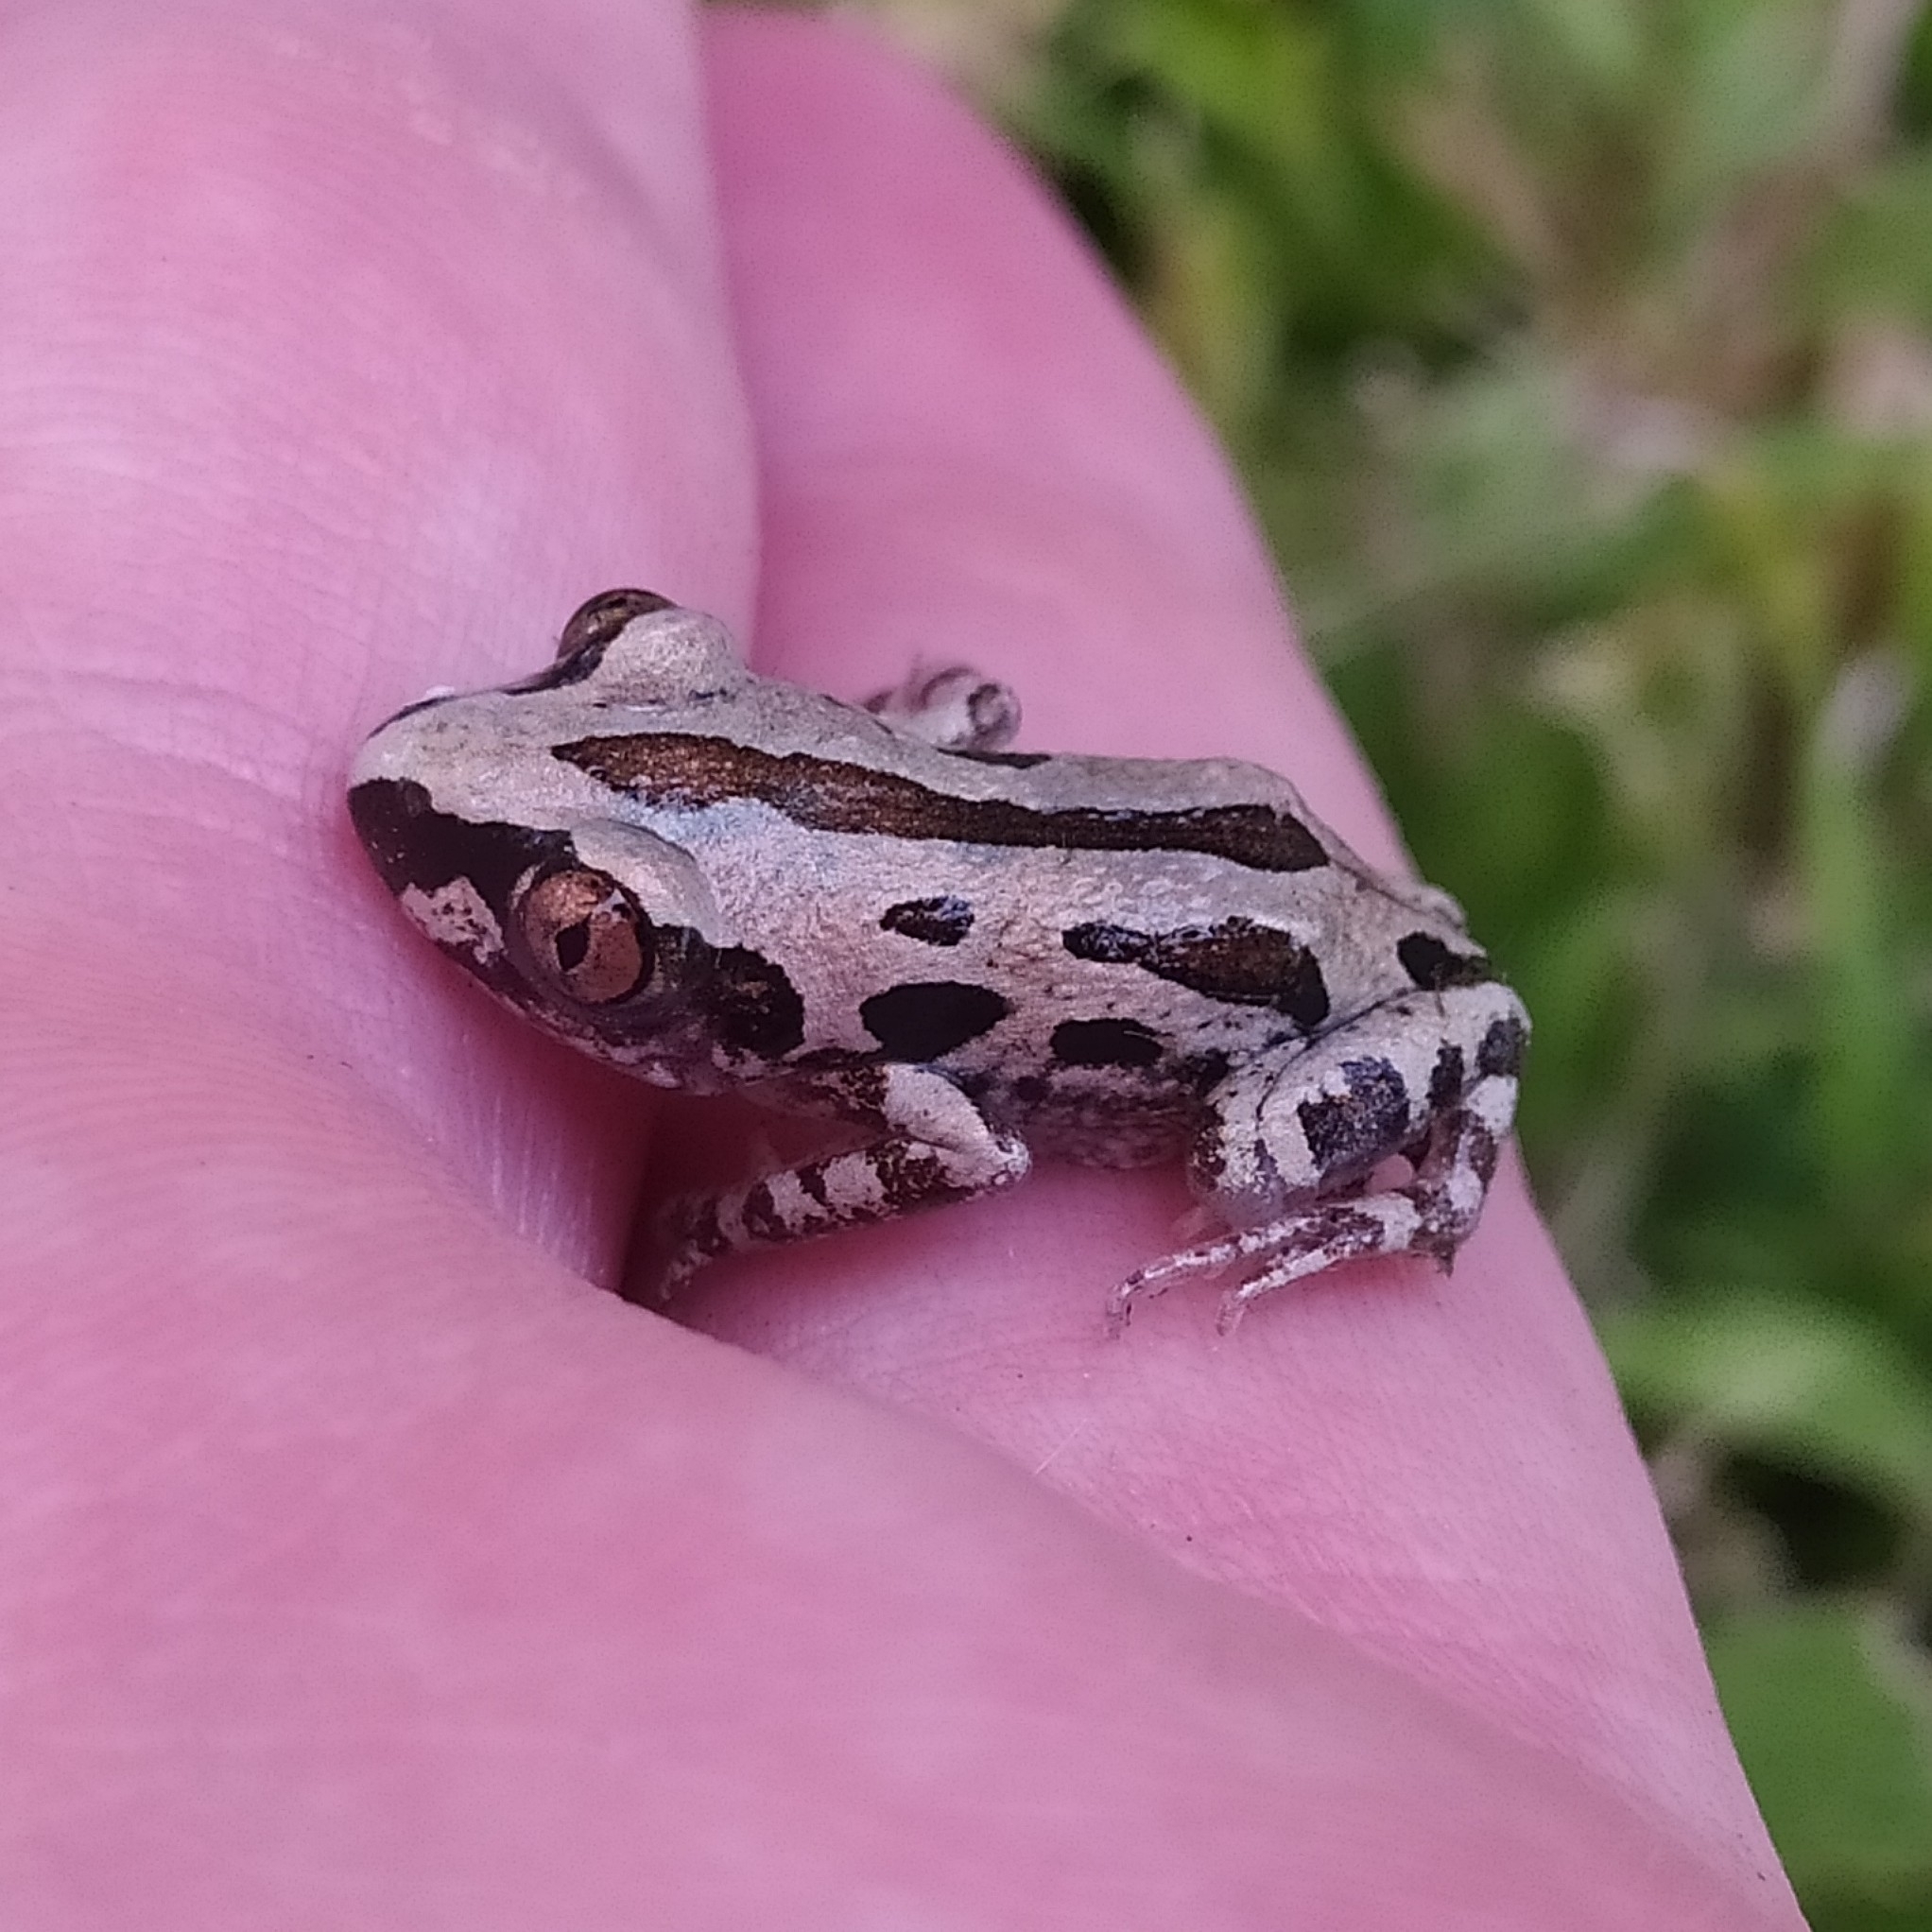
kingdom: Animalia
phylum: Chordata
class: Amphibia
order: Anura
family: Hyperoliidae
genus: Kassina
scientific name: Kassina senegalensis
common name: Senegal land frog
